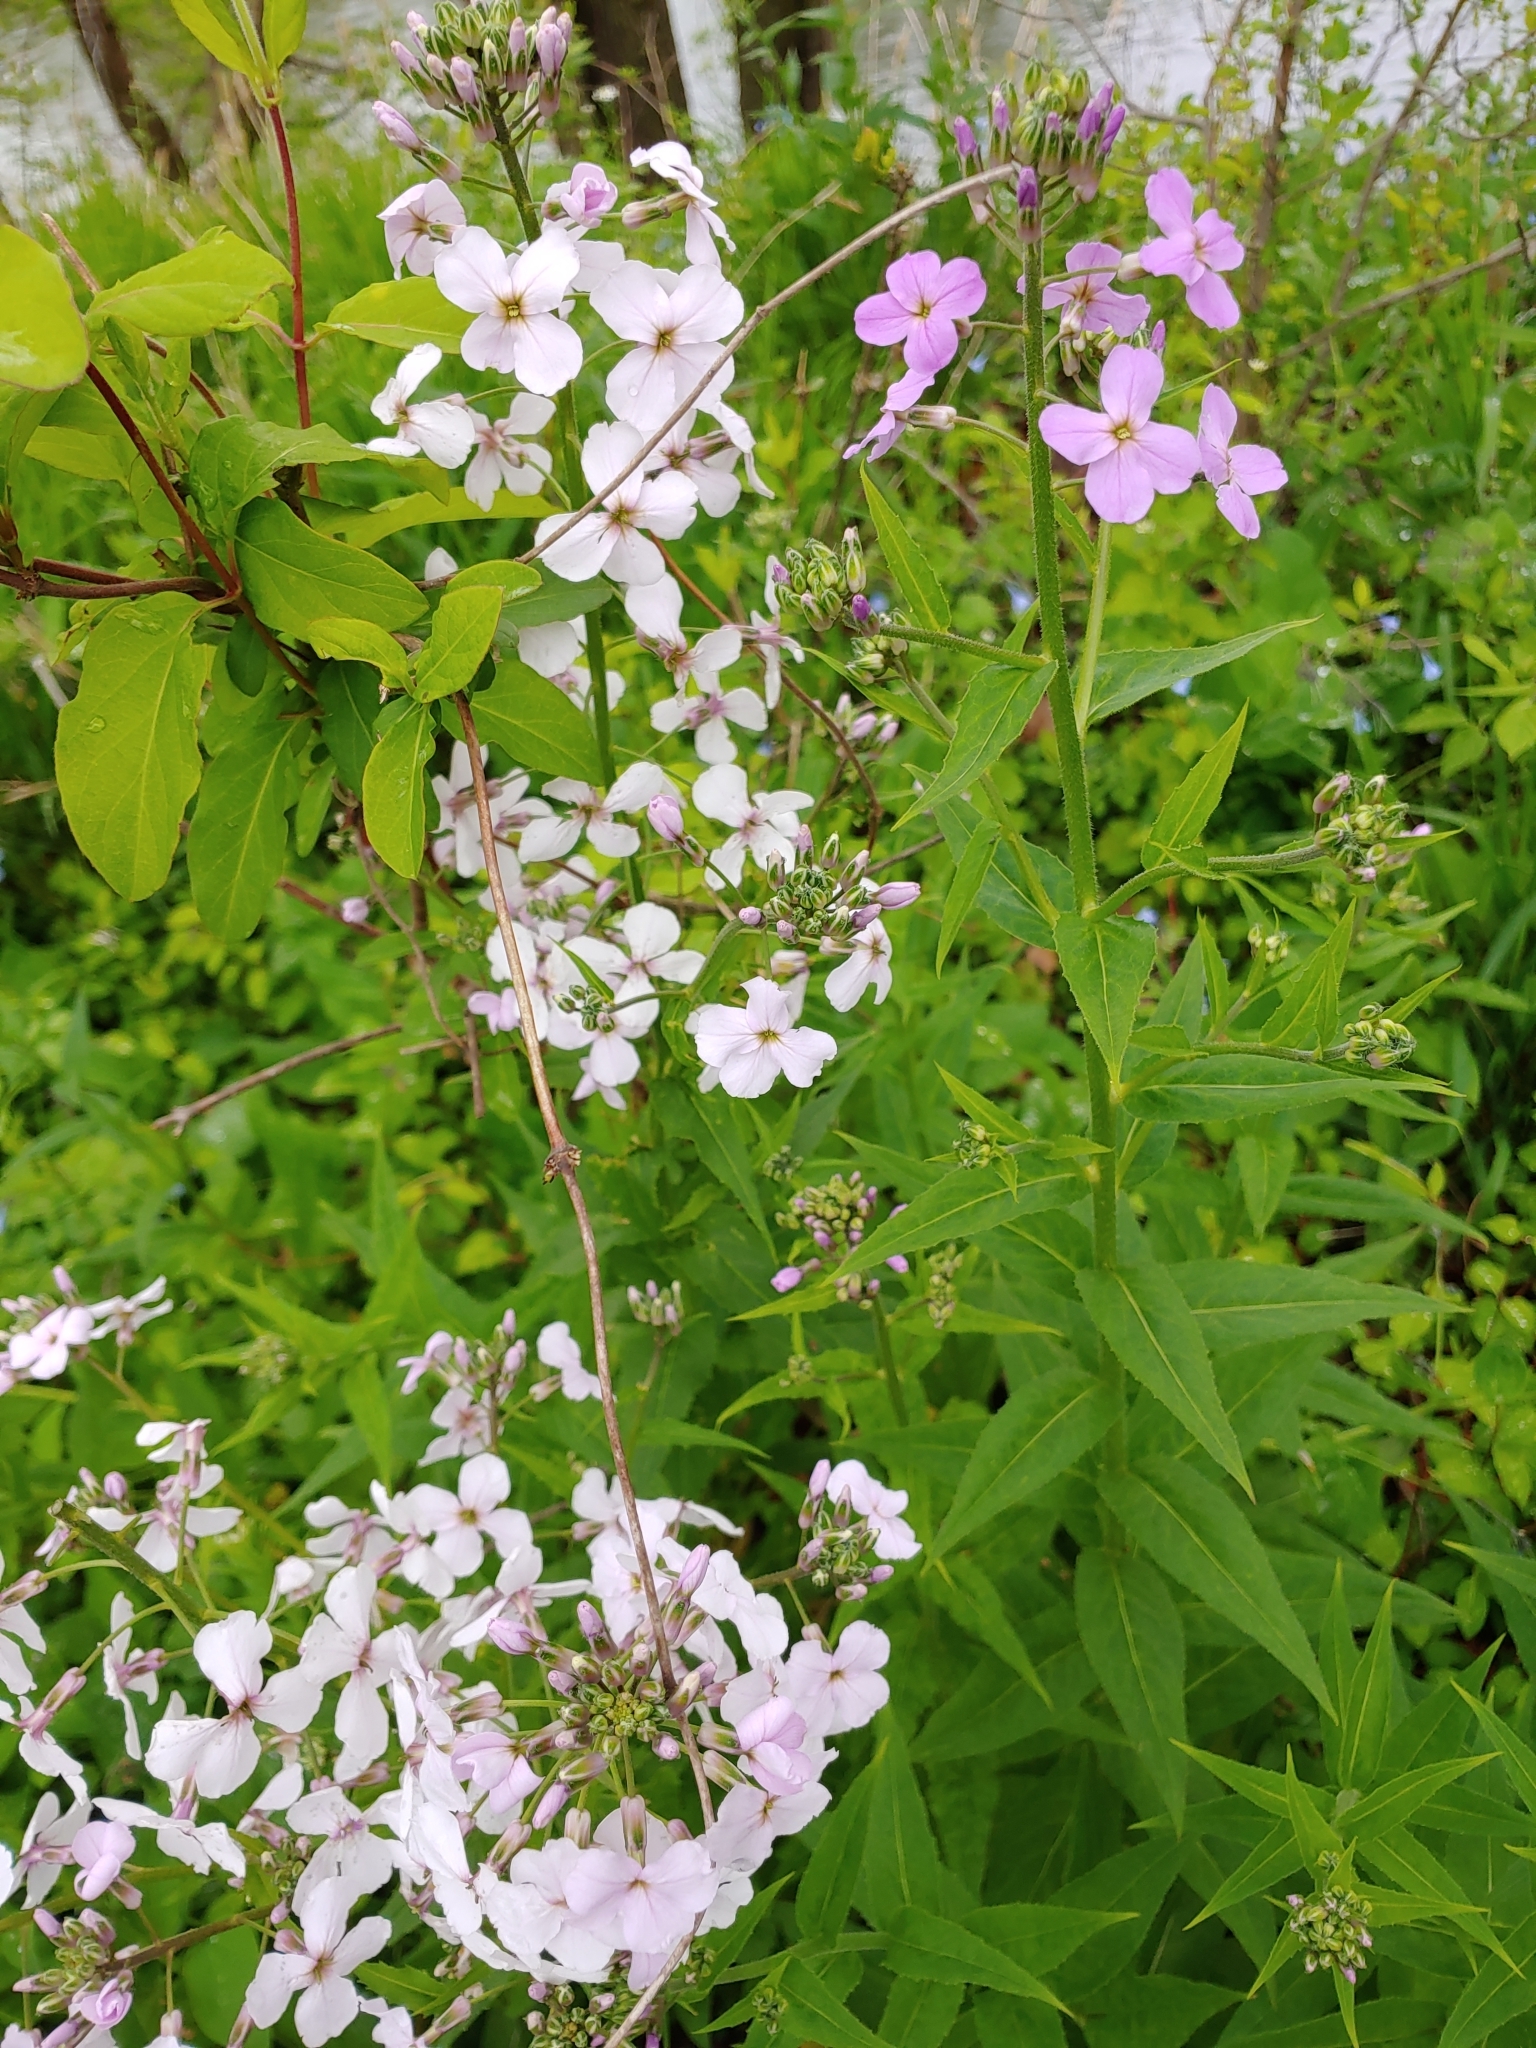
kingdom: Plantae
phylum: Tracheophyta
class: Magnoliopsida
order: Brassicales
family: Brassicaceae
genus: Hesperis
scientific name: Hesperis matronalis
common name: Dame's-violet
